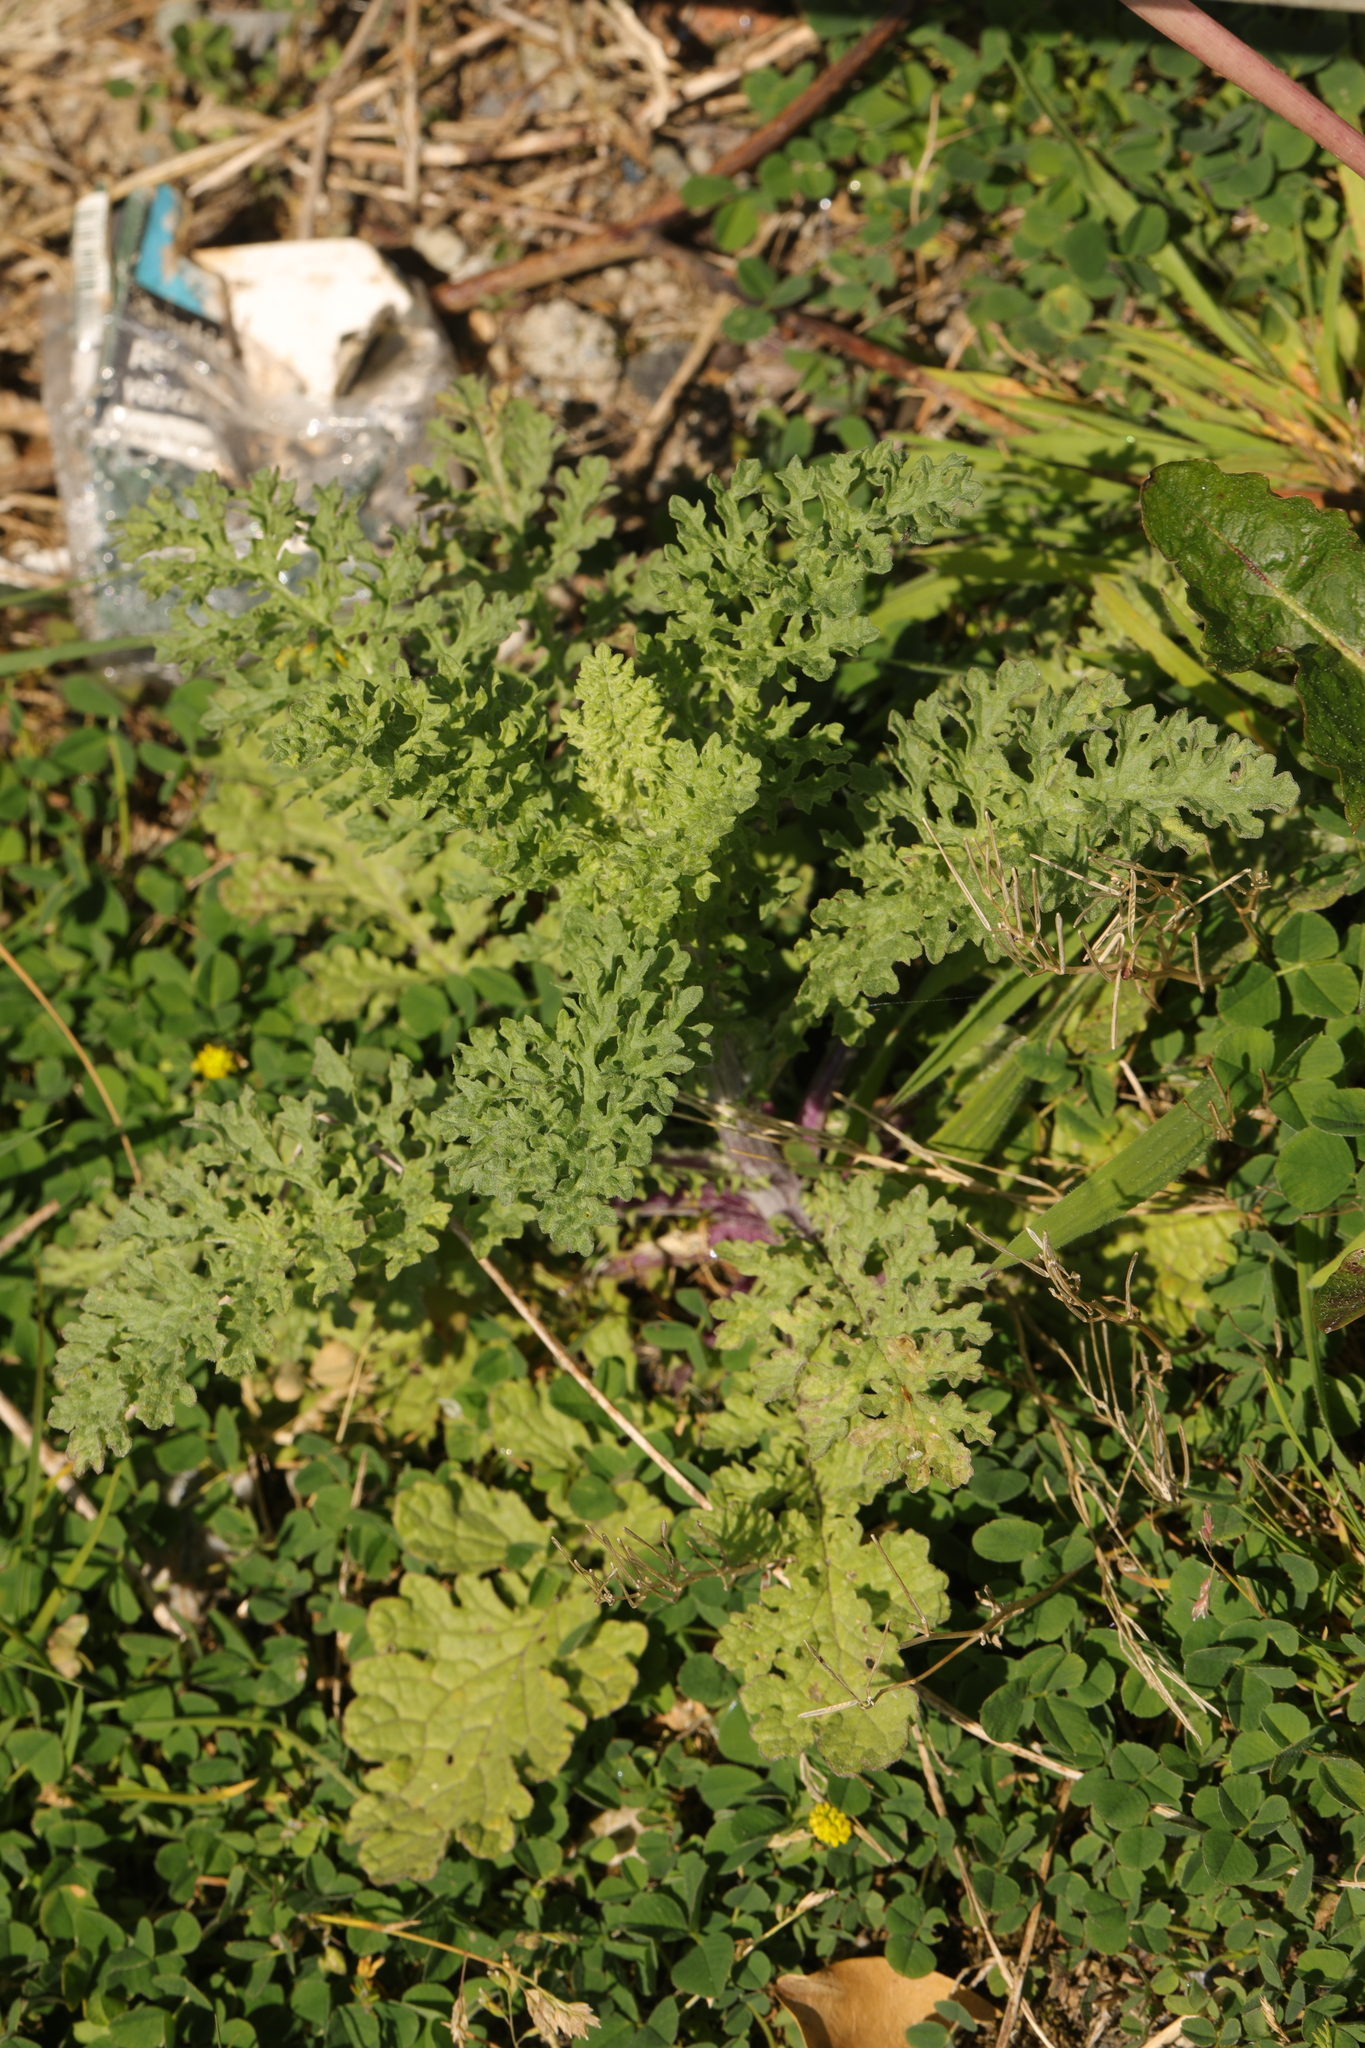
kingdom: Plantae
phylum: Tracheophyta
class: Magnoliopsida
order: Asterales
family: Asteraceae
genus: Jacobaea
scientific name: Jacobaea vulgaris
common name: Stinking willie
